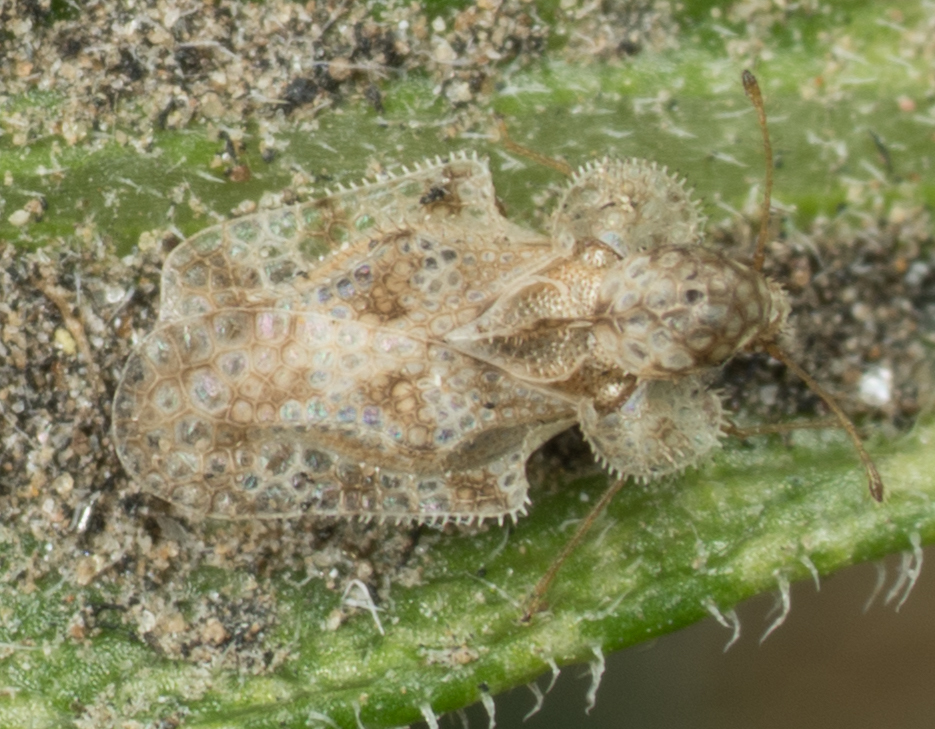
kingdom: Animalia
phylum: Arthropoda
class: Insecta
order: Hemiptera
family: Tingidae
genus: Corythucha
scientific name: Corythucha morrilli
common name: Morrill lace bug
